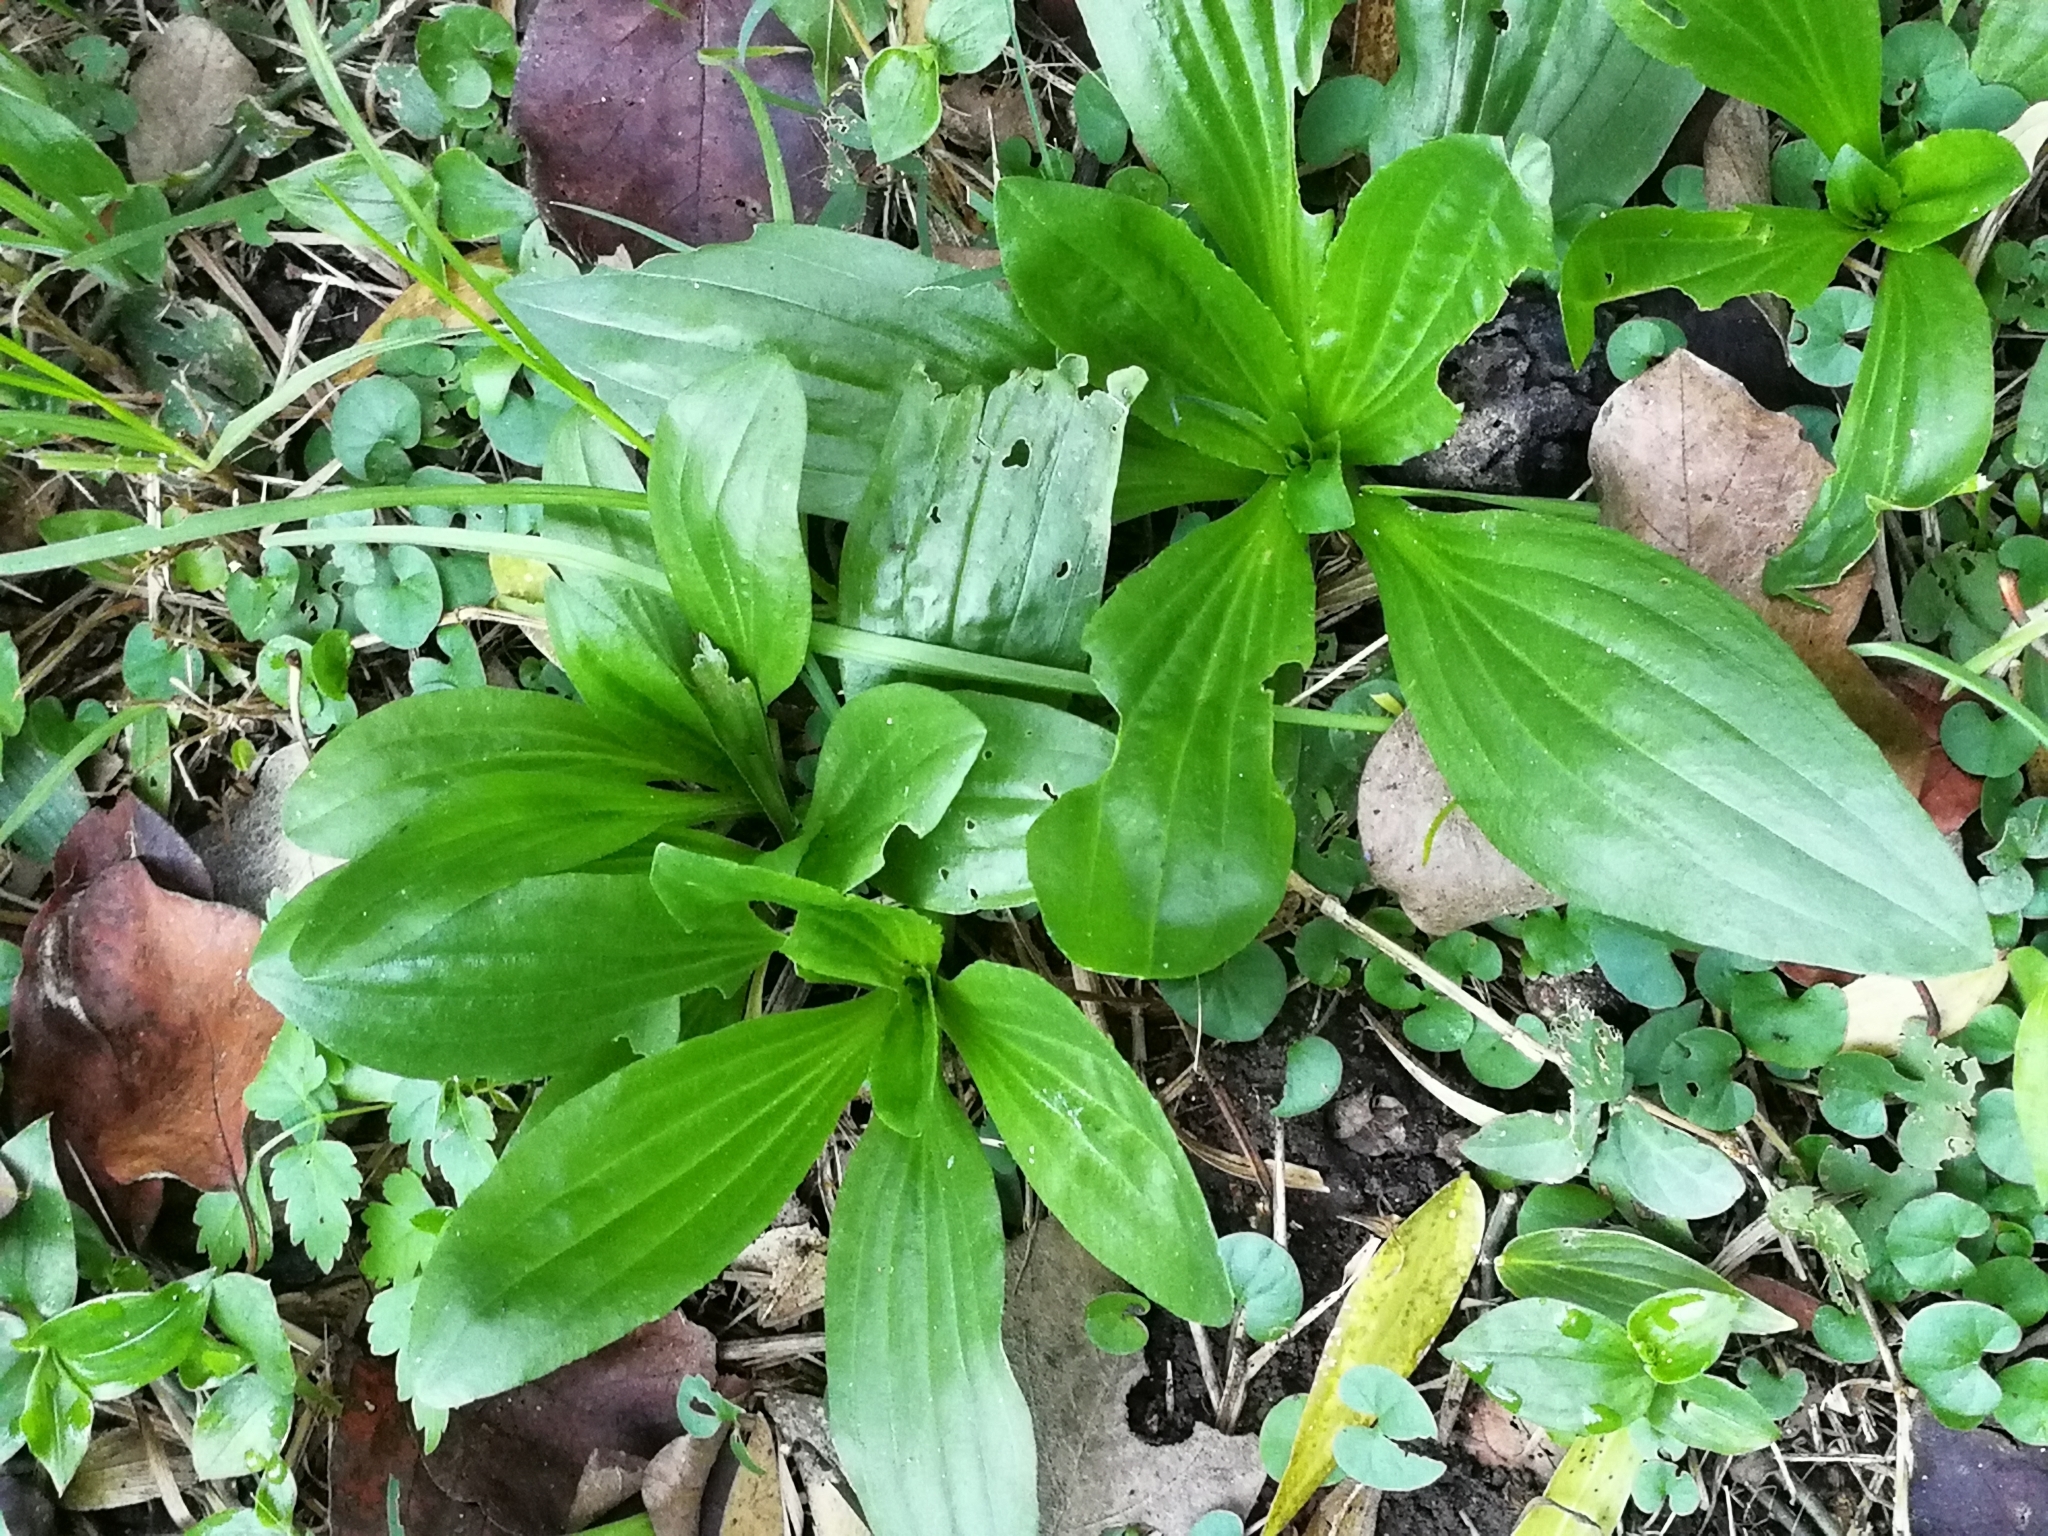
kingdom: Plantae
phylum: Tracheophyta
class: Magnoliopsida
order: Lamiales
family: Plantaginaceae
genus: Plantago
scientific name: Plantago major
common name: Common plantain
